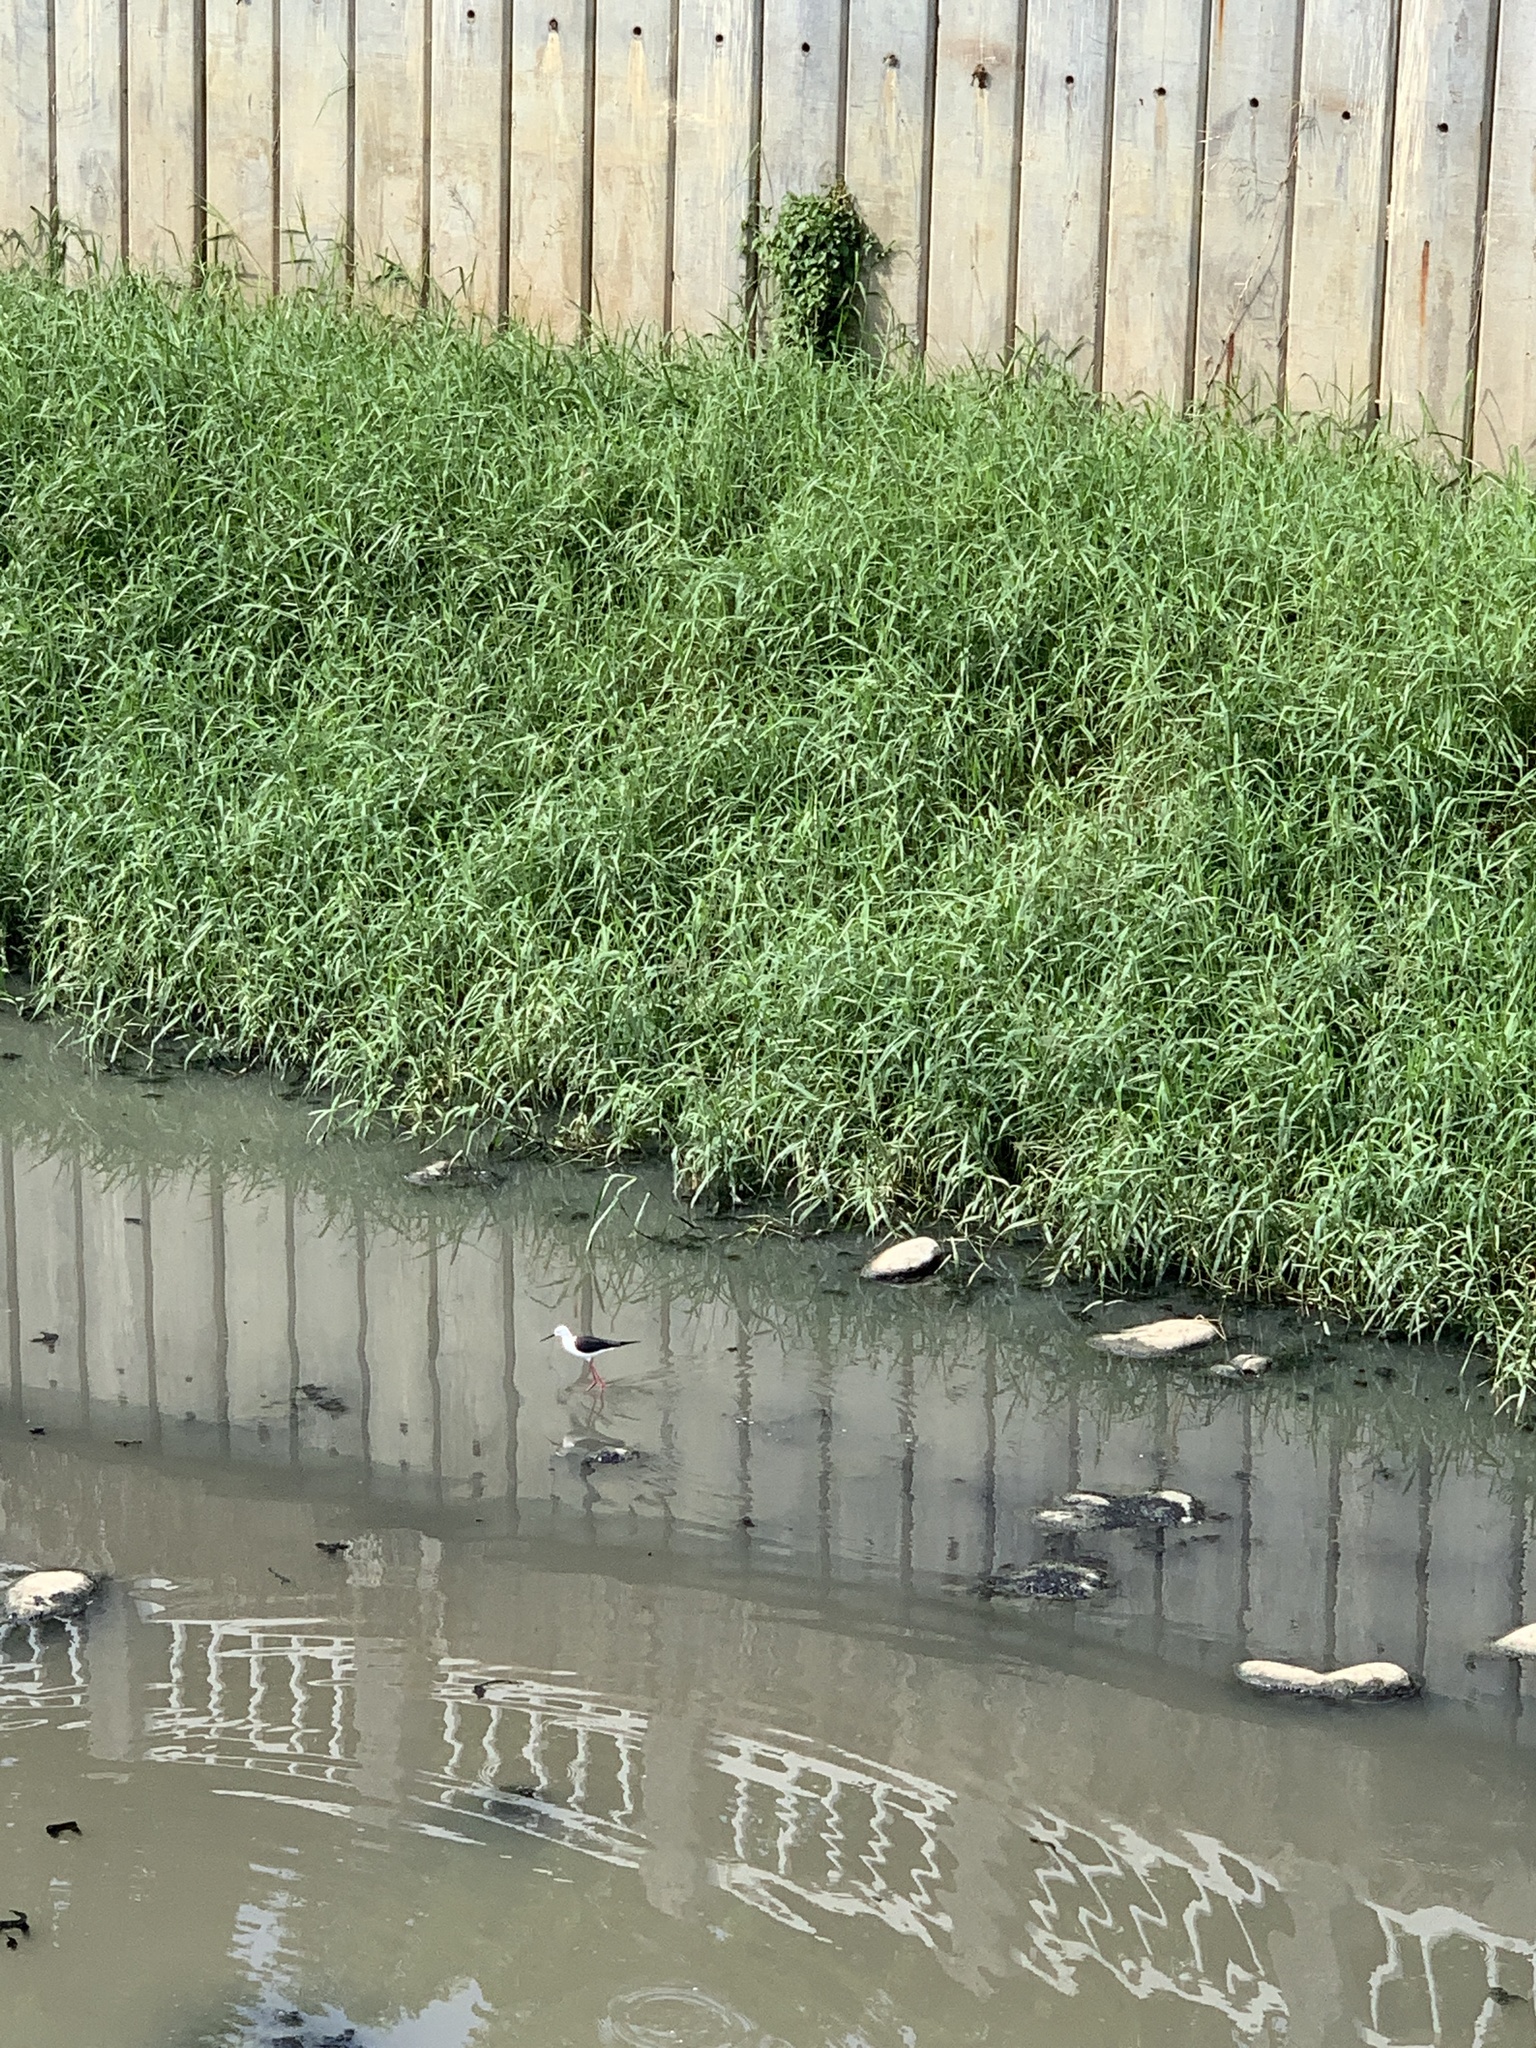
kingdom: Animalia
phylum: Chordata
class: Aves
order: Charadriiformes
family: Recurvirostridae
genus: Himantopus
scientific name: Himantopus himantopus
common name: Black-winged stilt
